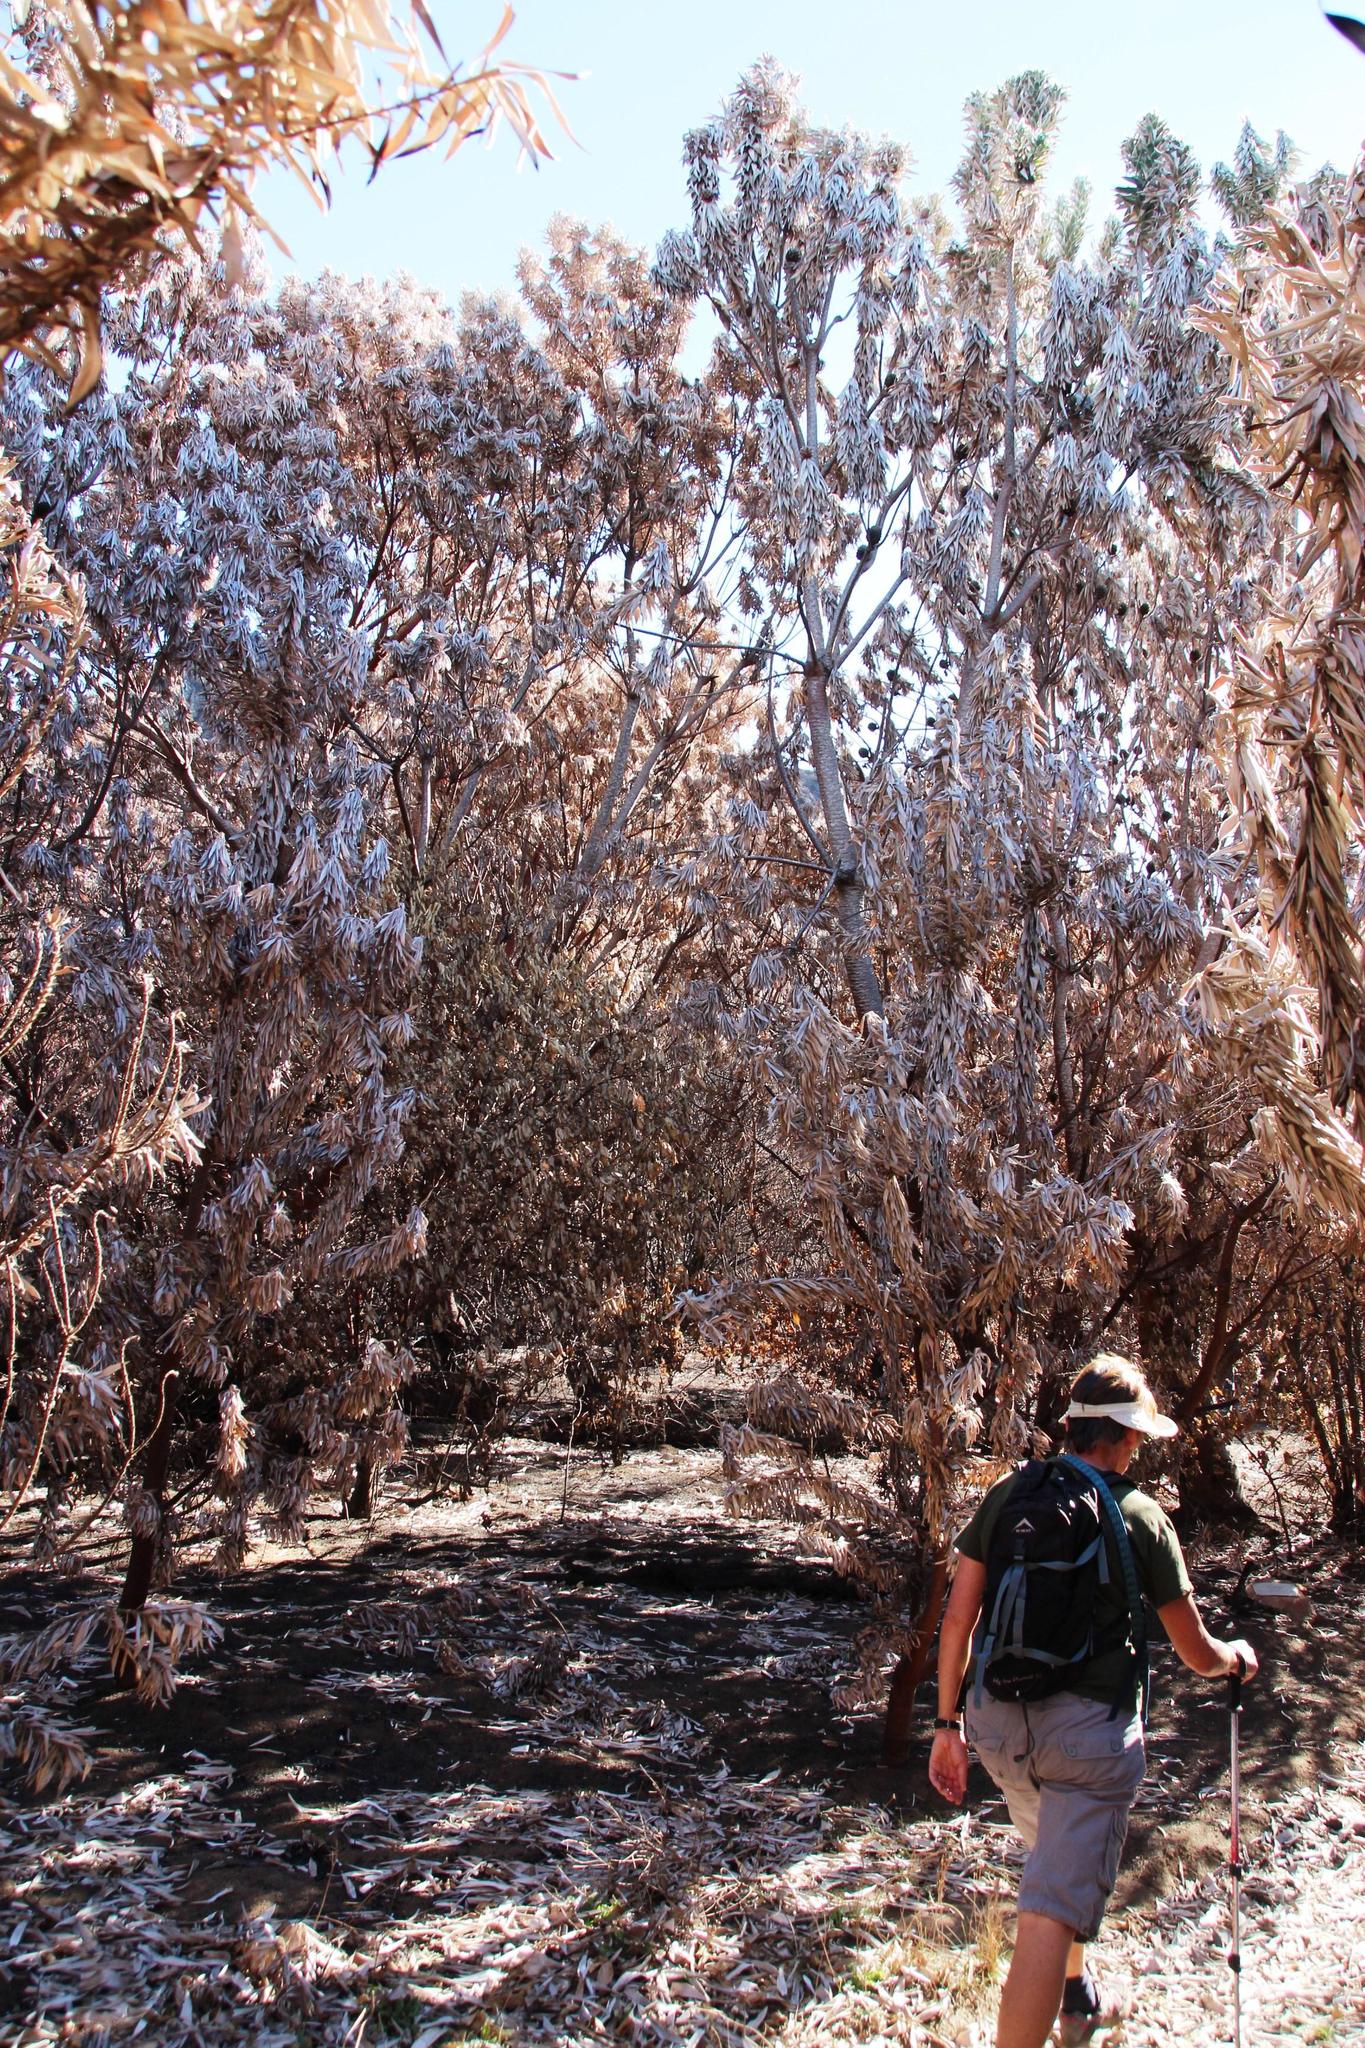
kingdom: Plantae
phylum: Tracheophyta
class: Magnoliopsida
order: Proteales
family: Proteaceae
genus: Leucadendron
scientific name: Leucadendron argenteum
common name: Cape silver tree
